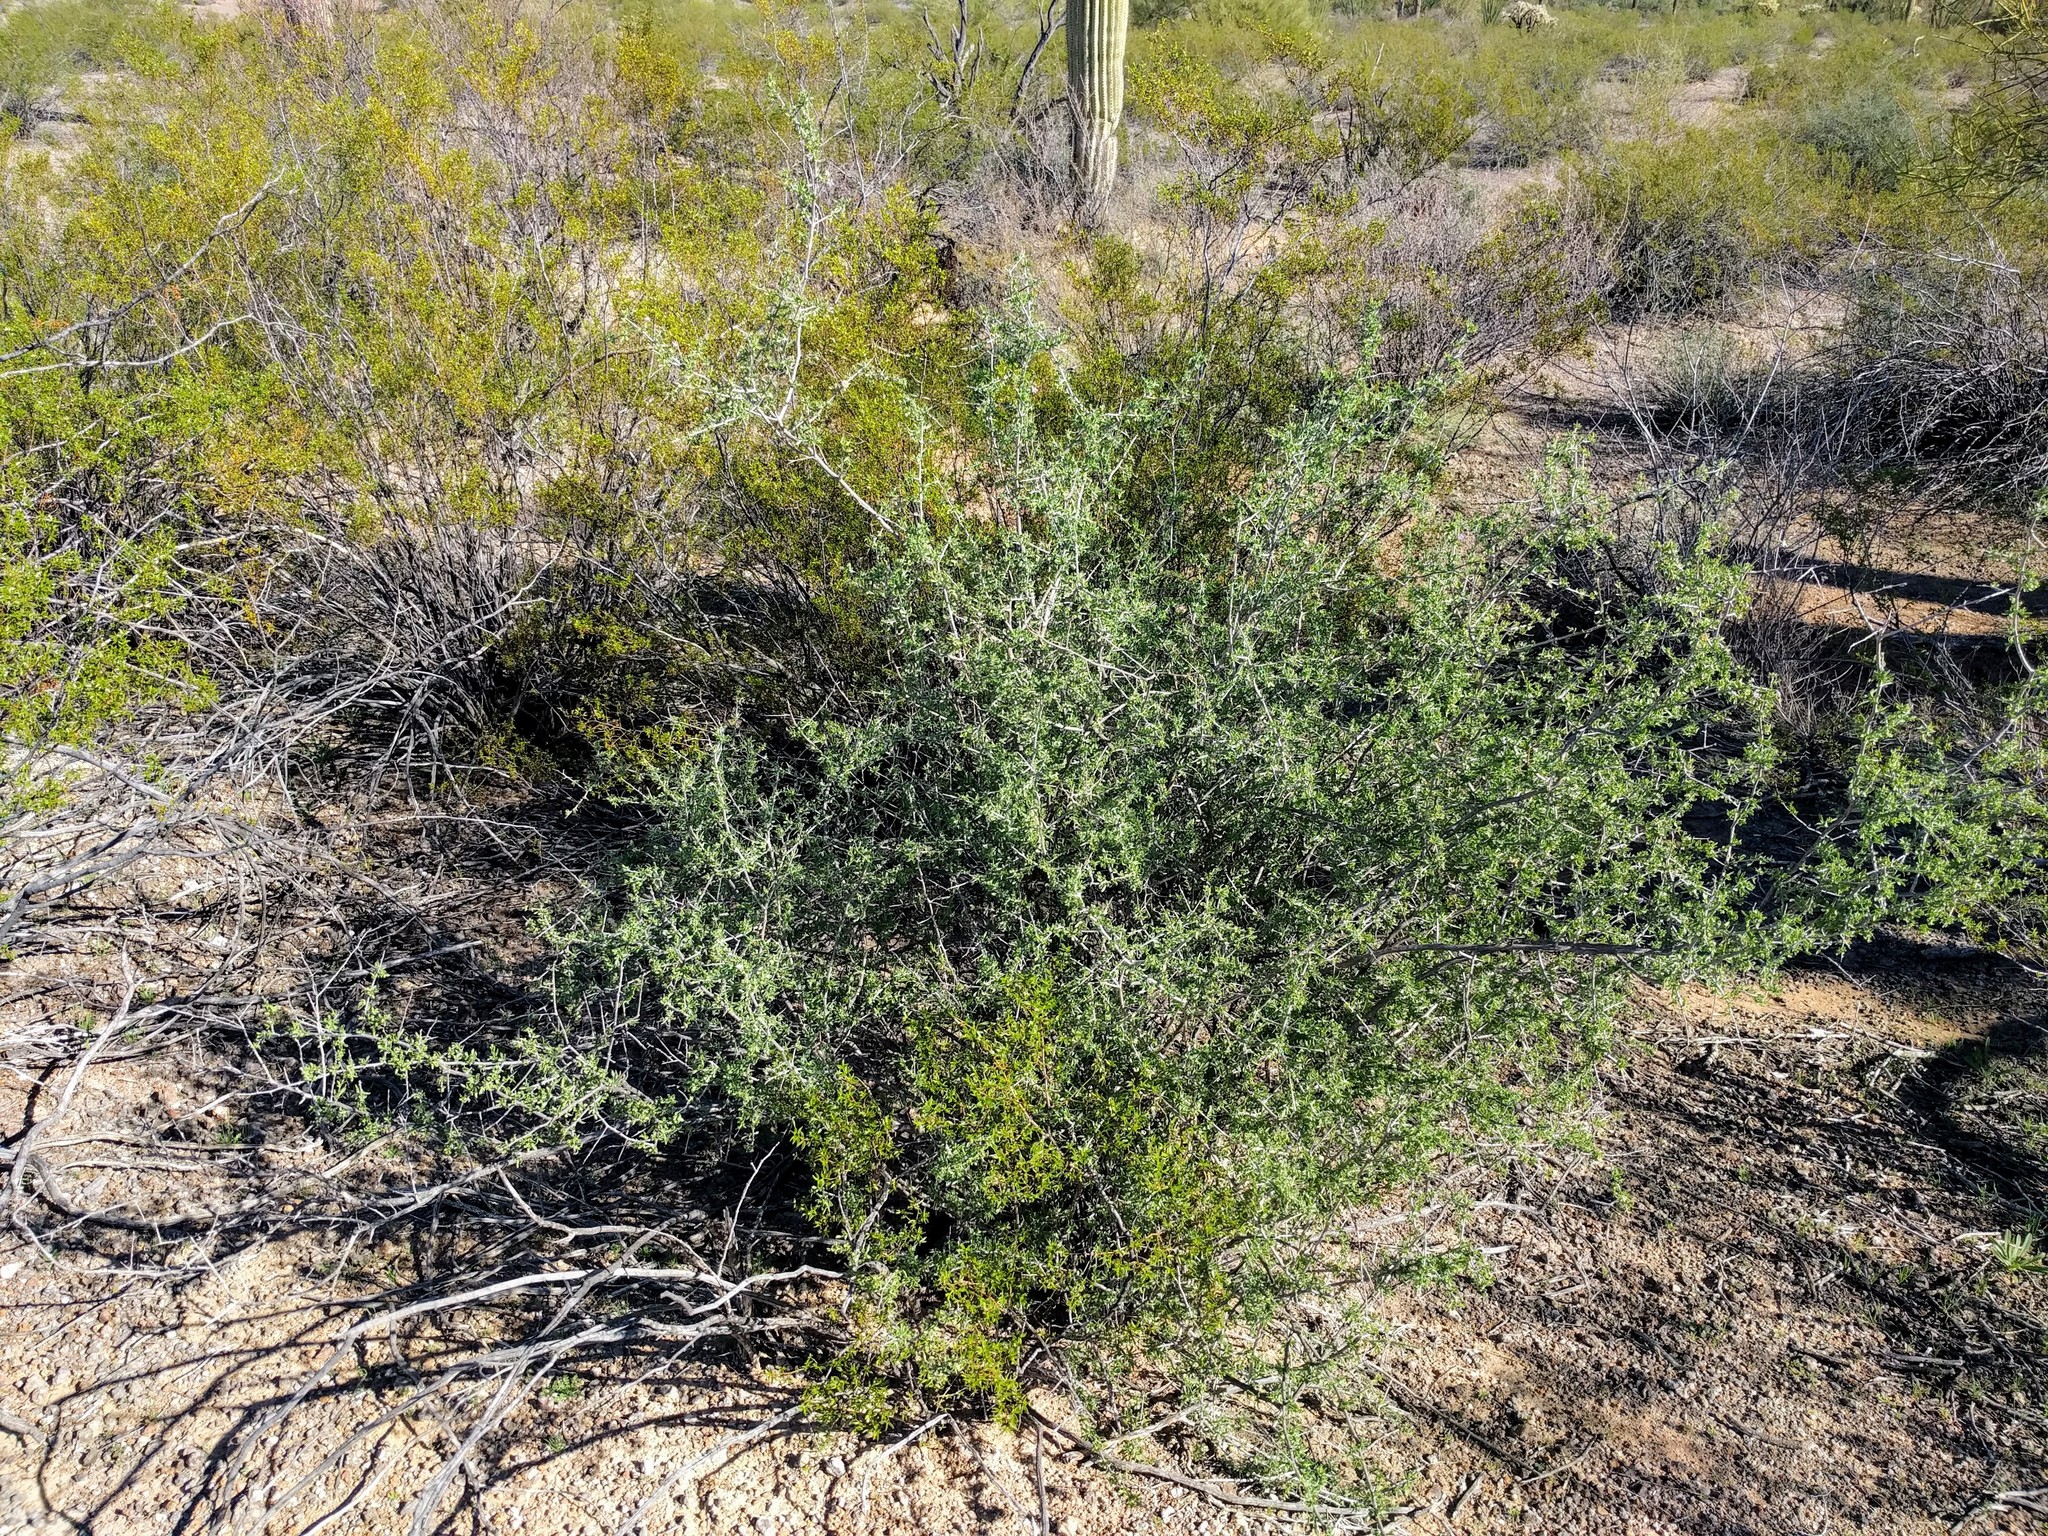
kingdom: Plantae
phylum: Tracheophyta
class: Magnoliopsida
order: Solanales
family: Solanaceae
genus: Lycium
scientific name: Lycium andersonii
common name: Water-jacket
